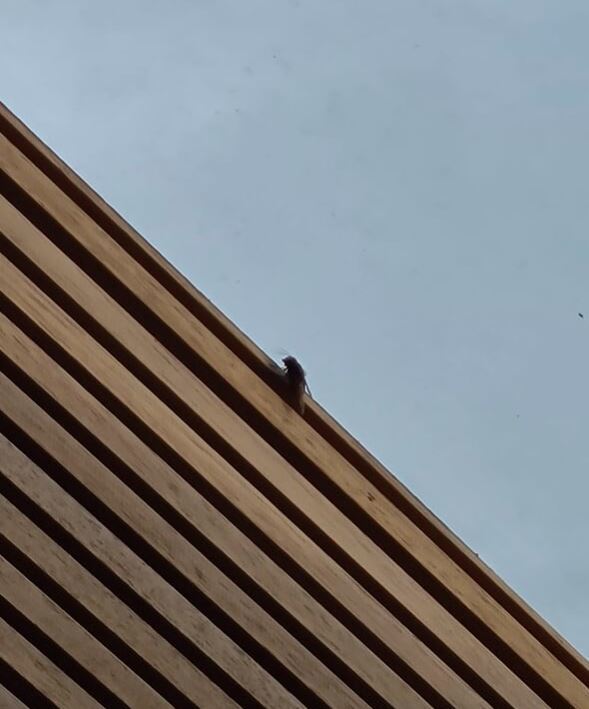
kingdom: Animalia
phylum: Arthropoda
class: Insecta
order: Diptera
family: Syrphidae
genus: Volucella
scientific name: Volucella zonaria
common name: Hornet hoverfly
